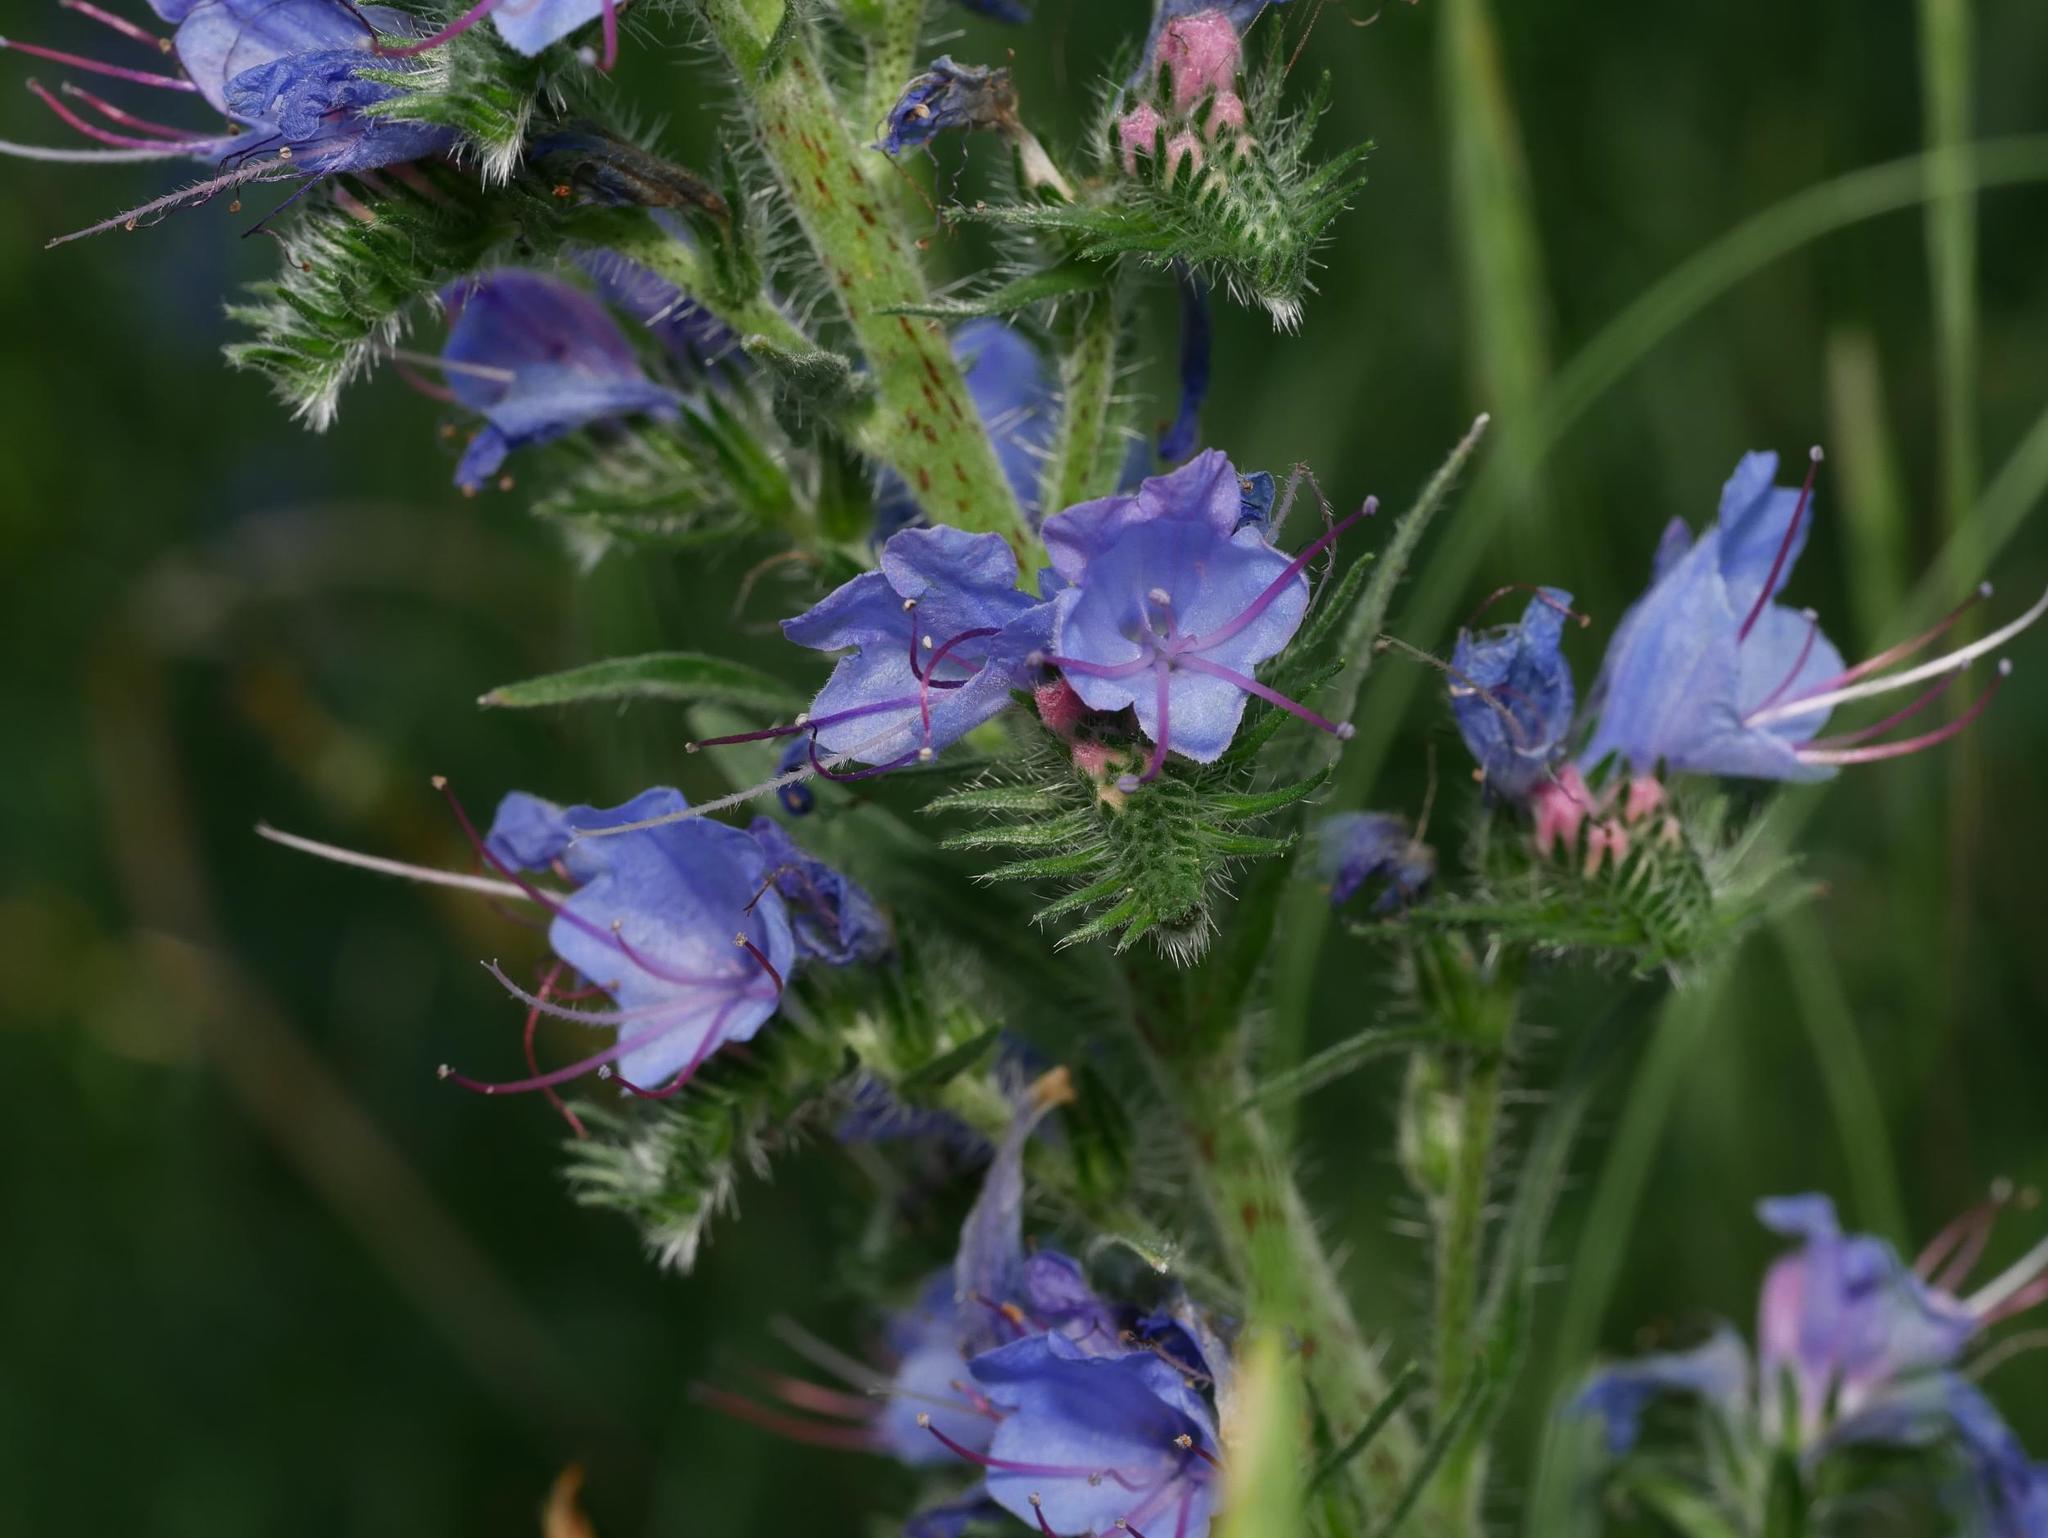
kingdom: Plantae
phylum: Tracheophyta
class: Magnoliopsida
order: Boraginales
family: Boraginaceae
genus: Echium
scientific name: Echium vulgare
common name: Common viper's bugloss
